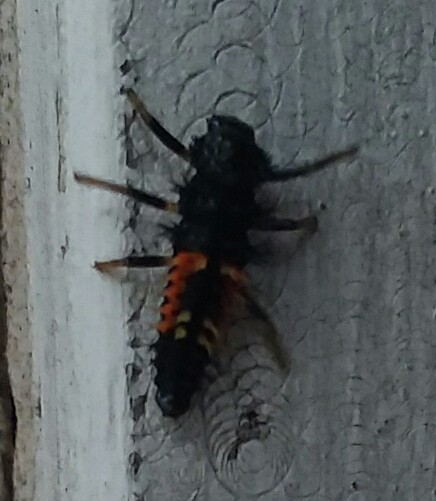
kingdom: Animalia
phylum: Arthropoda
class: Insecta
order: Coleoptera
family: Coccinellidae
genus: Harmonia
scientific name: Harmonia axyridis
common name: Harlequin ladybird
